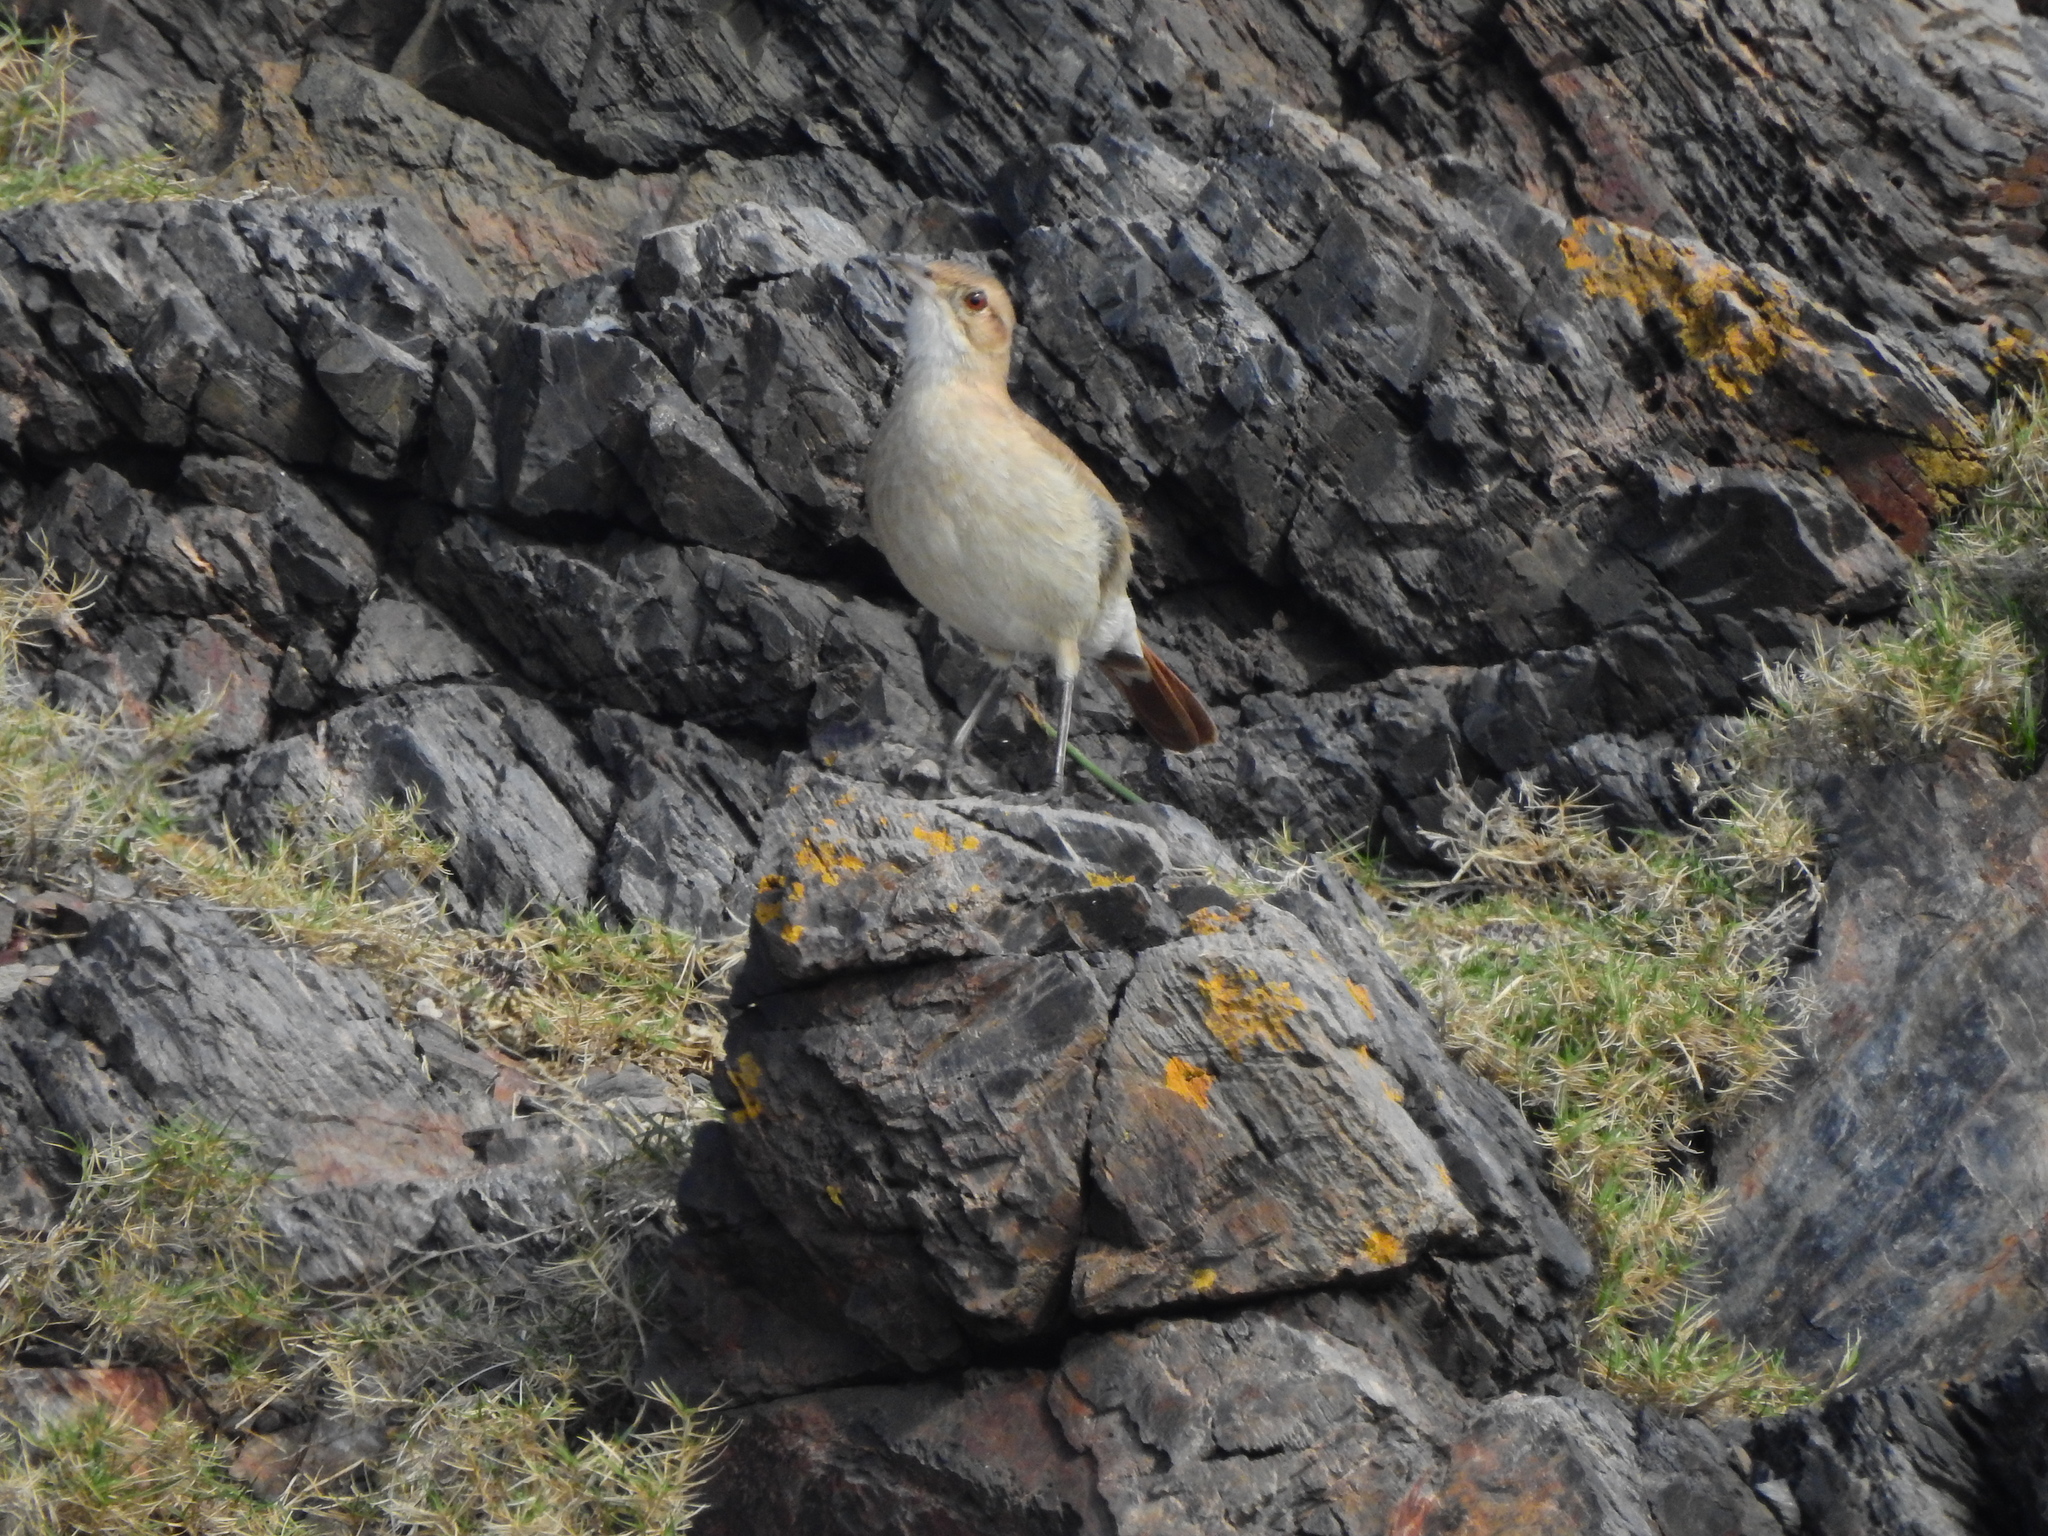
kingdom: Animalia
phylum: Chordata
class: Aves
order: Passeriformes
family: Furnariidae
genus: Furnarius
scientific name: Furnarius rufus
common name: Rufous hornero
